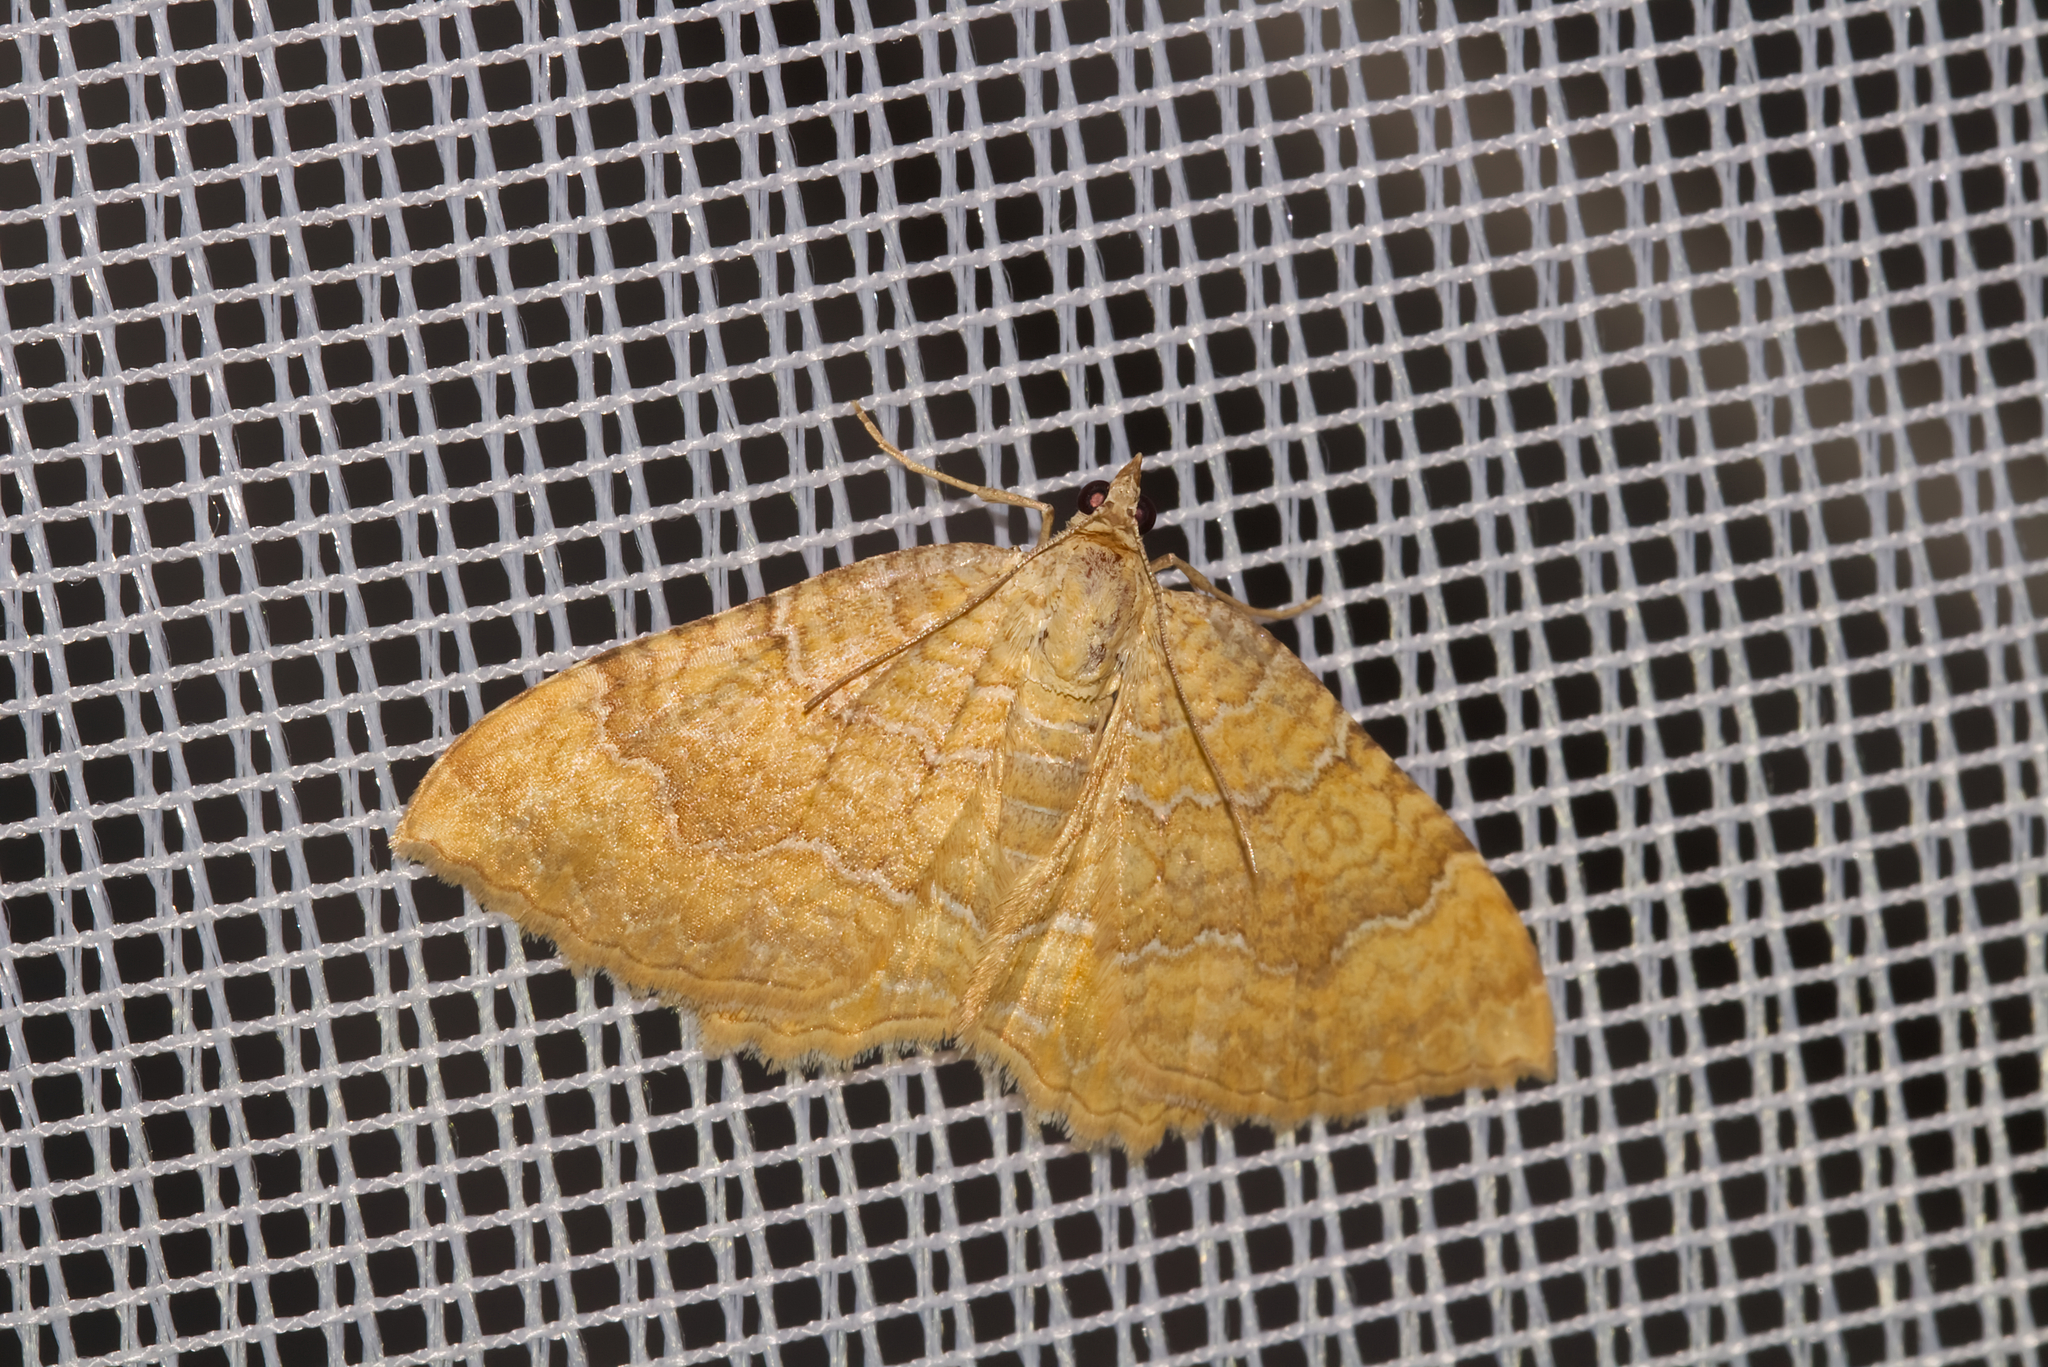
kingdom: Animalia
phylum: Arthropoda
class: Insecta
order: Lepidoptera
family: Geometridae
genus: Camptogramma
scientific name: Camptogramma bilineata
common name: Yellow shell
